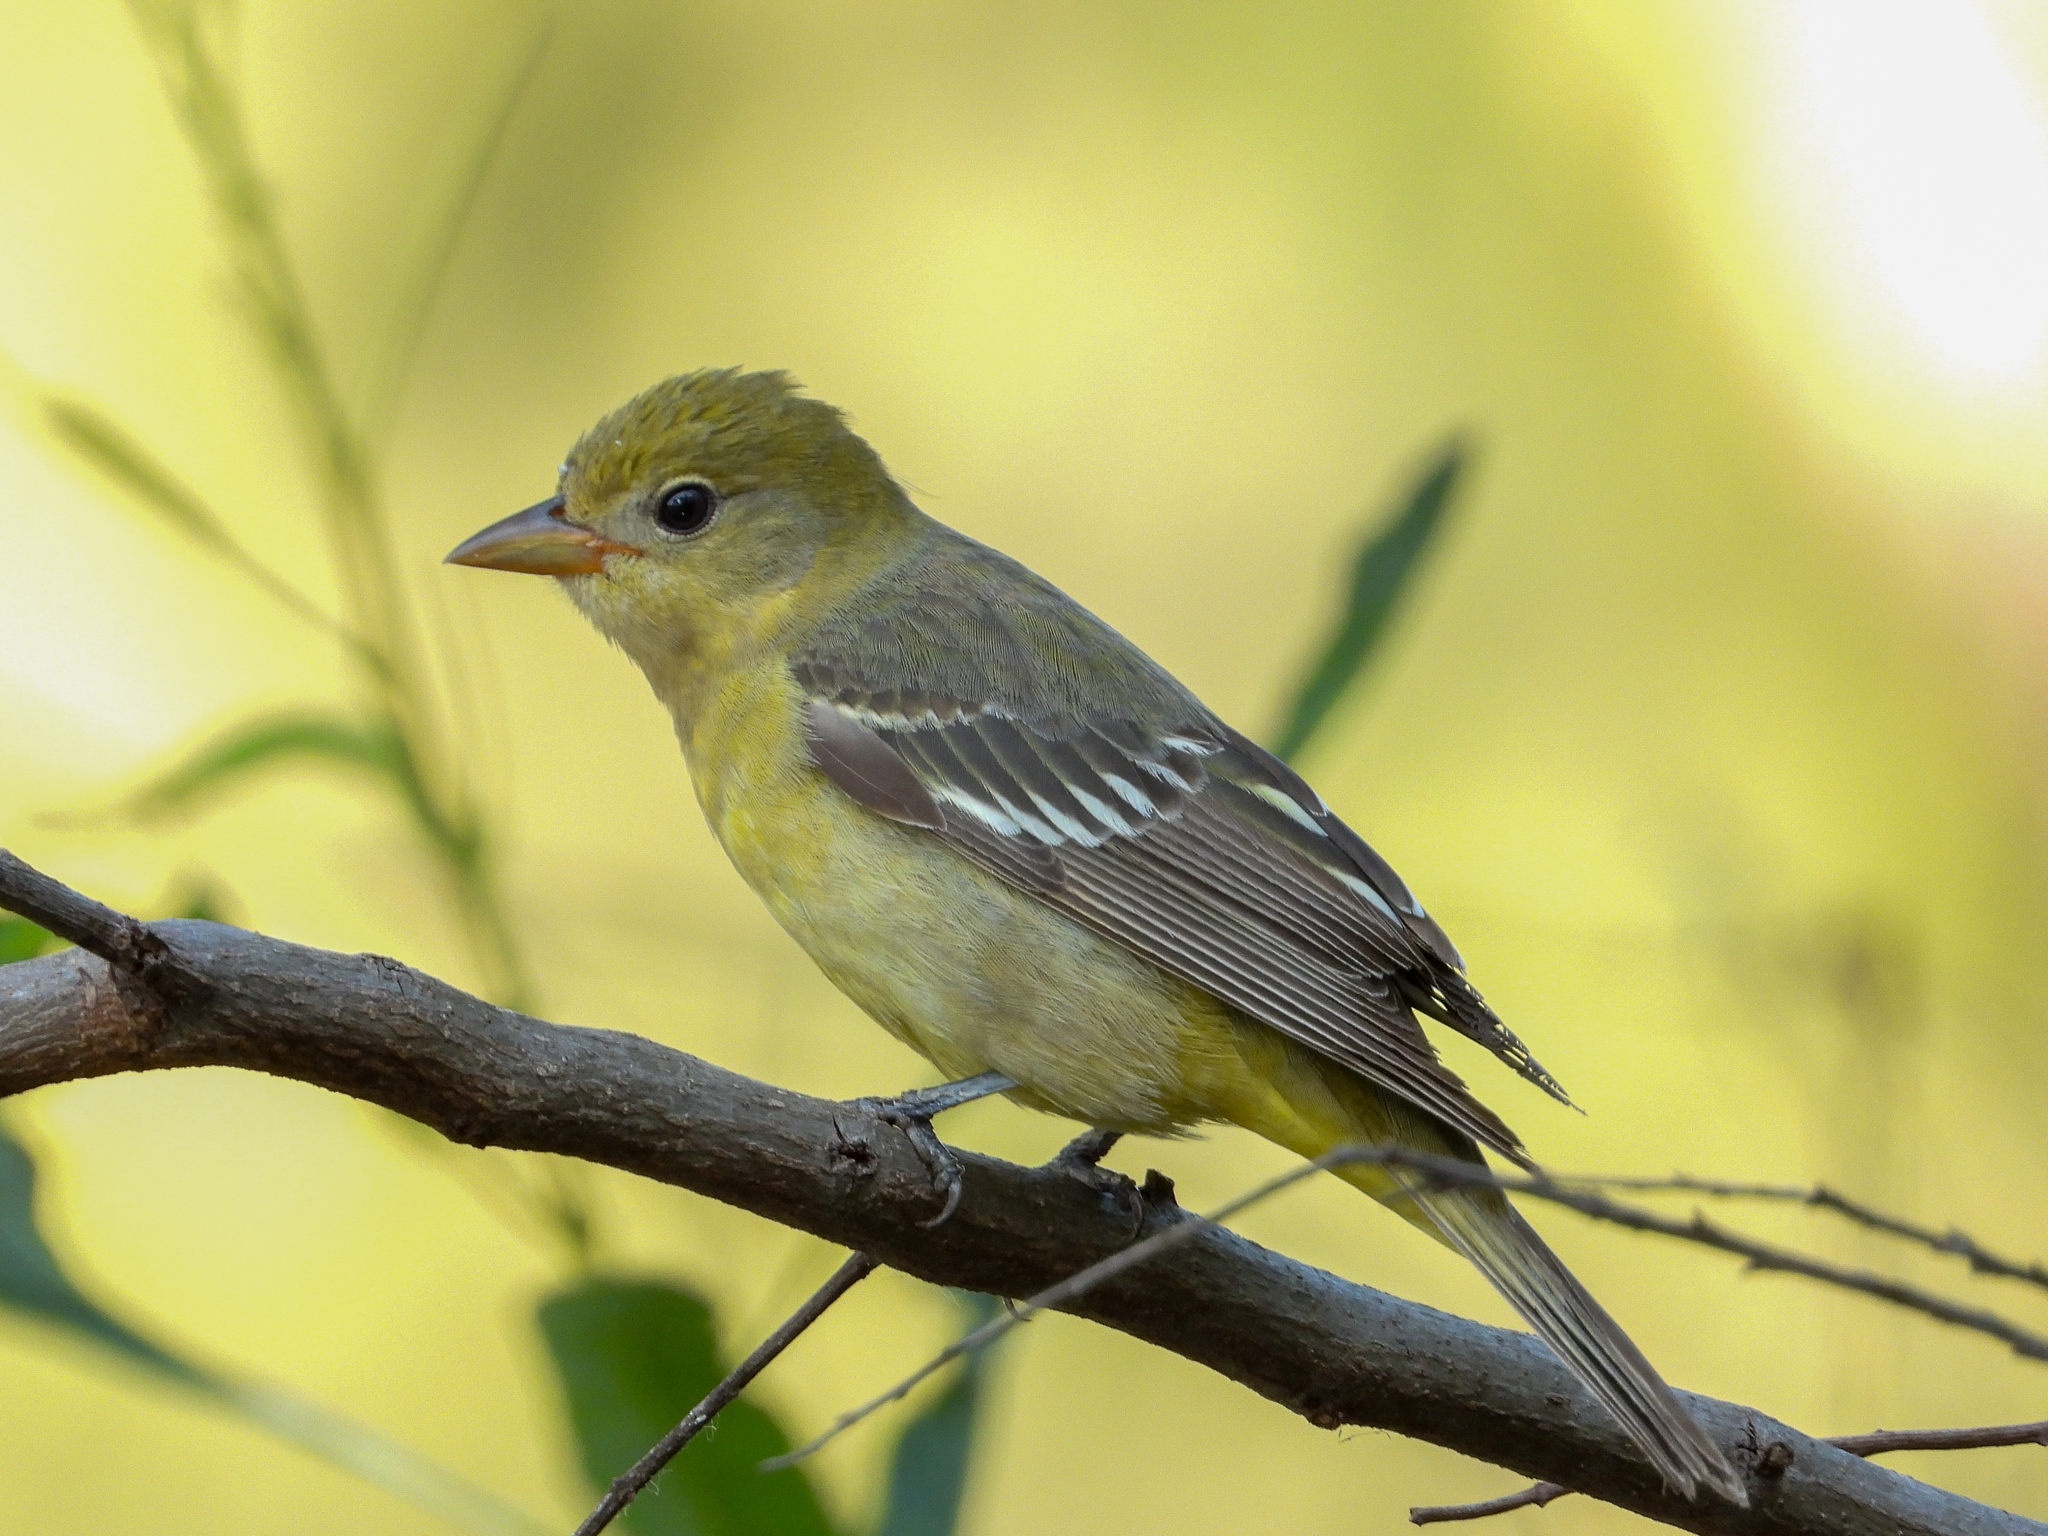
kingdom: Animalia
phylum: Chordata
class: Aves
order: Passeriformes
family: Cardinalidae
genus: Piranga
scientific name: Piranga ludoviciana
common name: Western tanager
